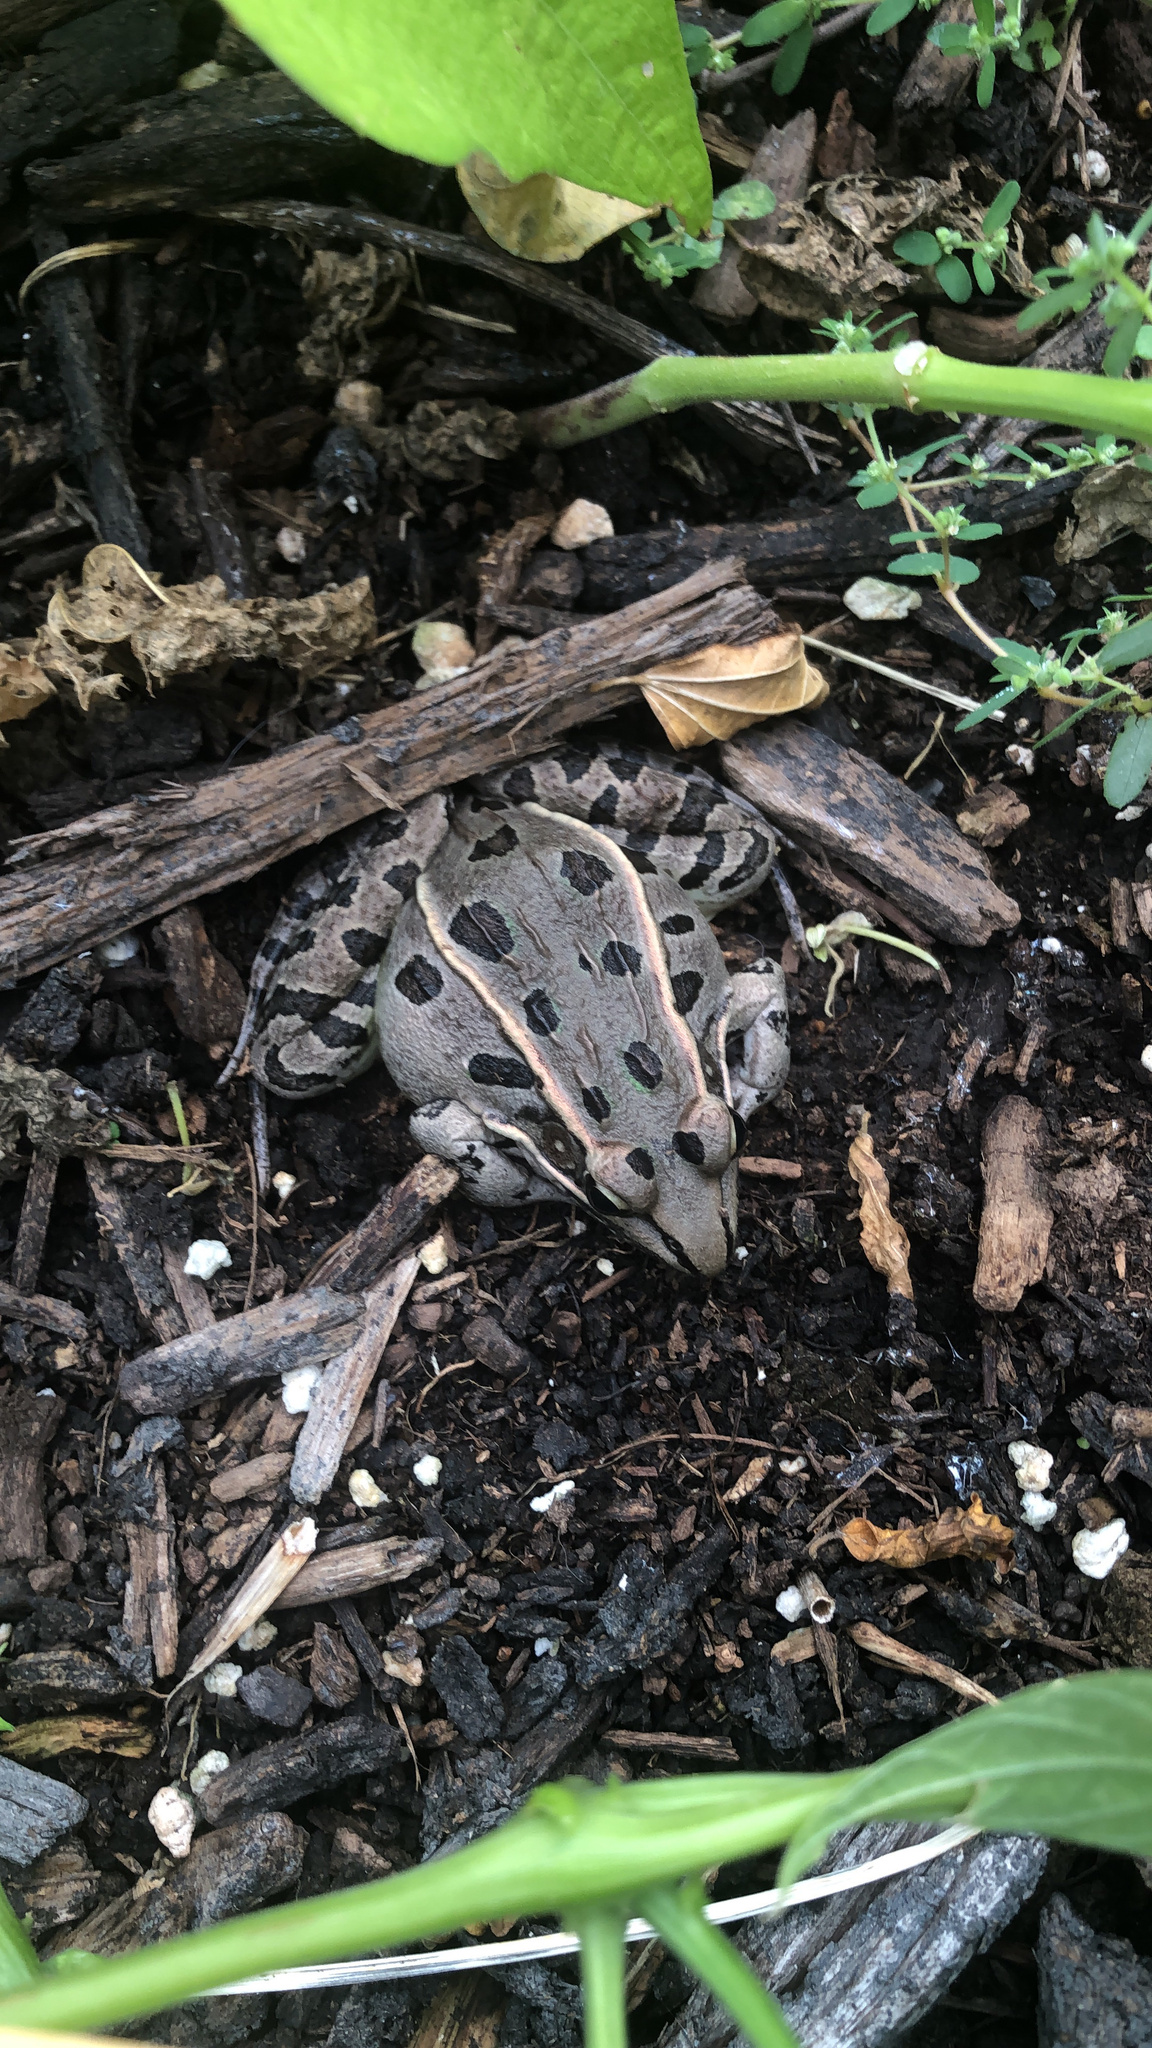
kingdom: Animalia
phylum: Chordata
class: Amphibia
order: Anura
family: Ranidae
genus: Lithobates
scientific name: Lithobates sphenocephalus
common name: Southern leopard frog
